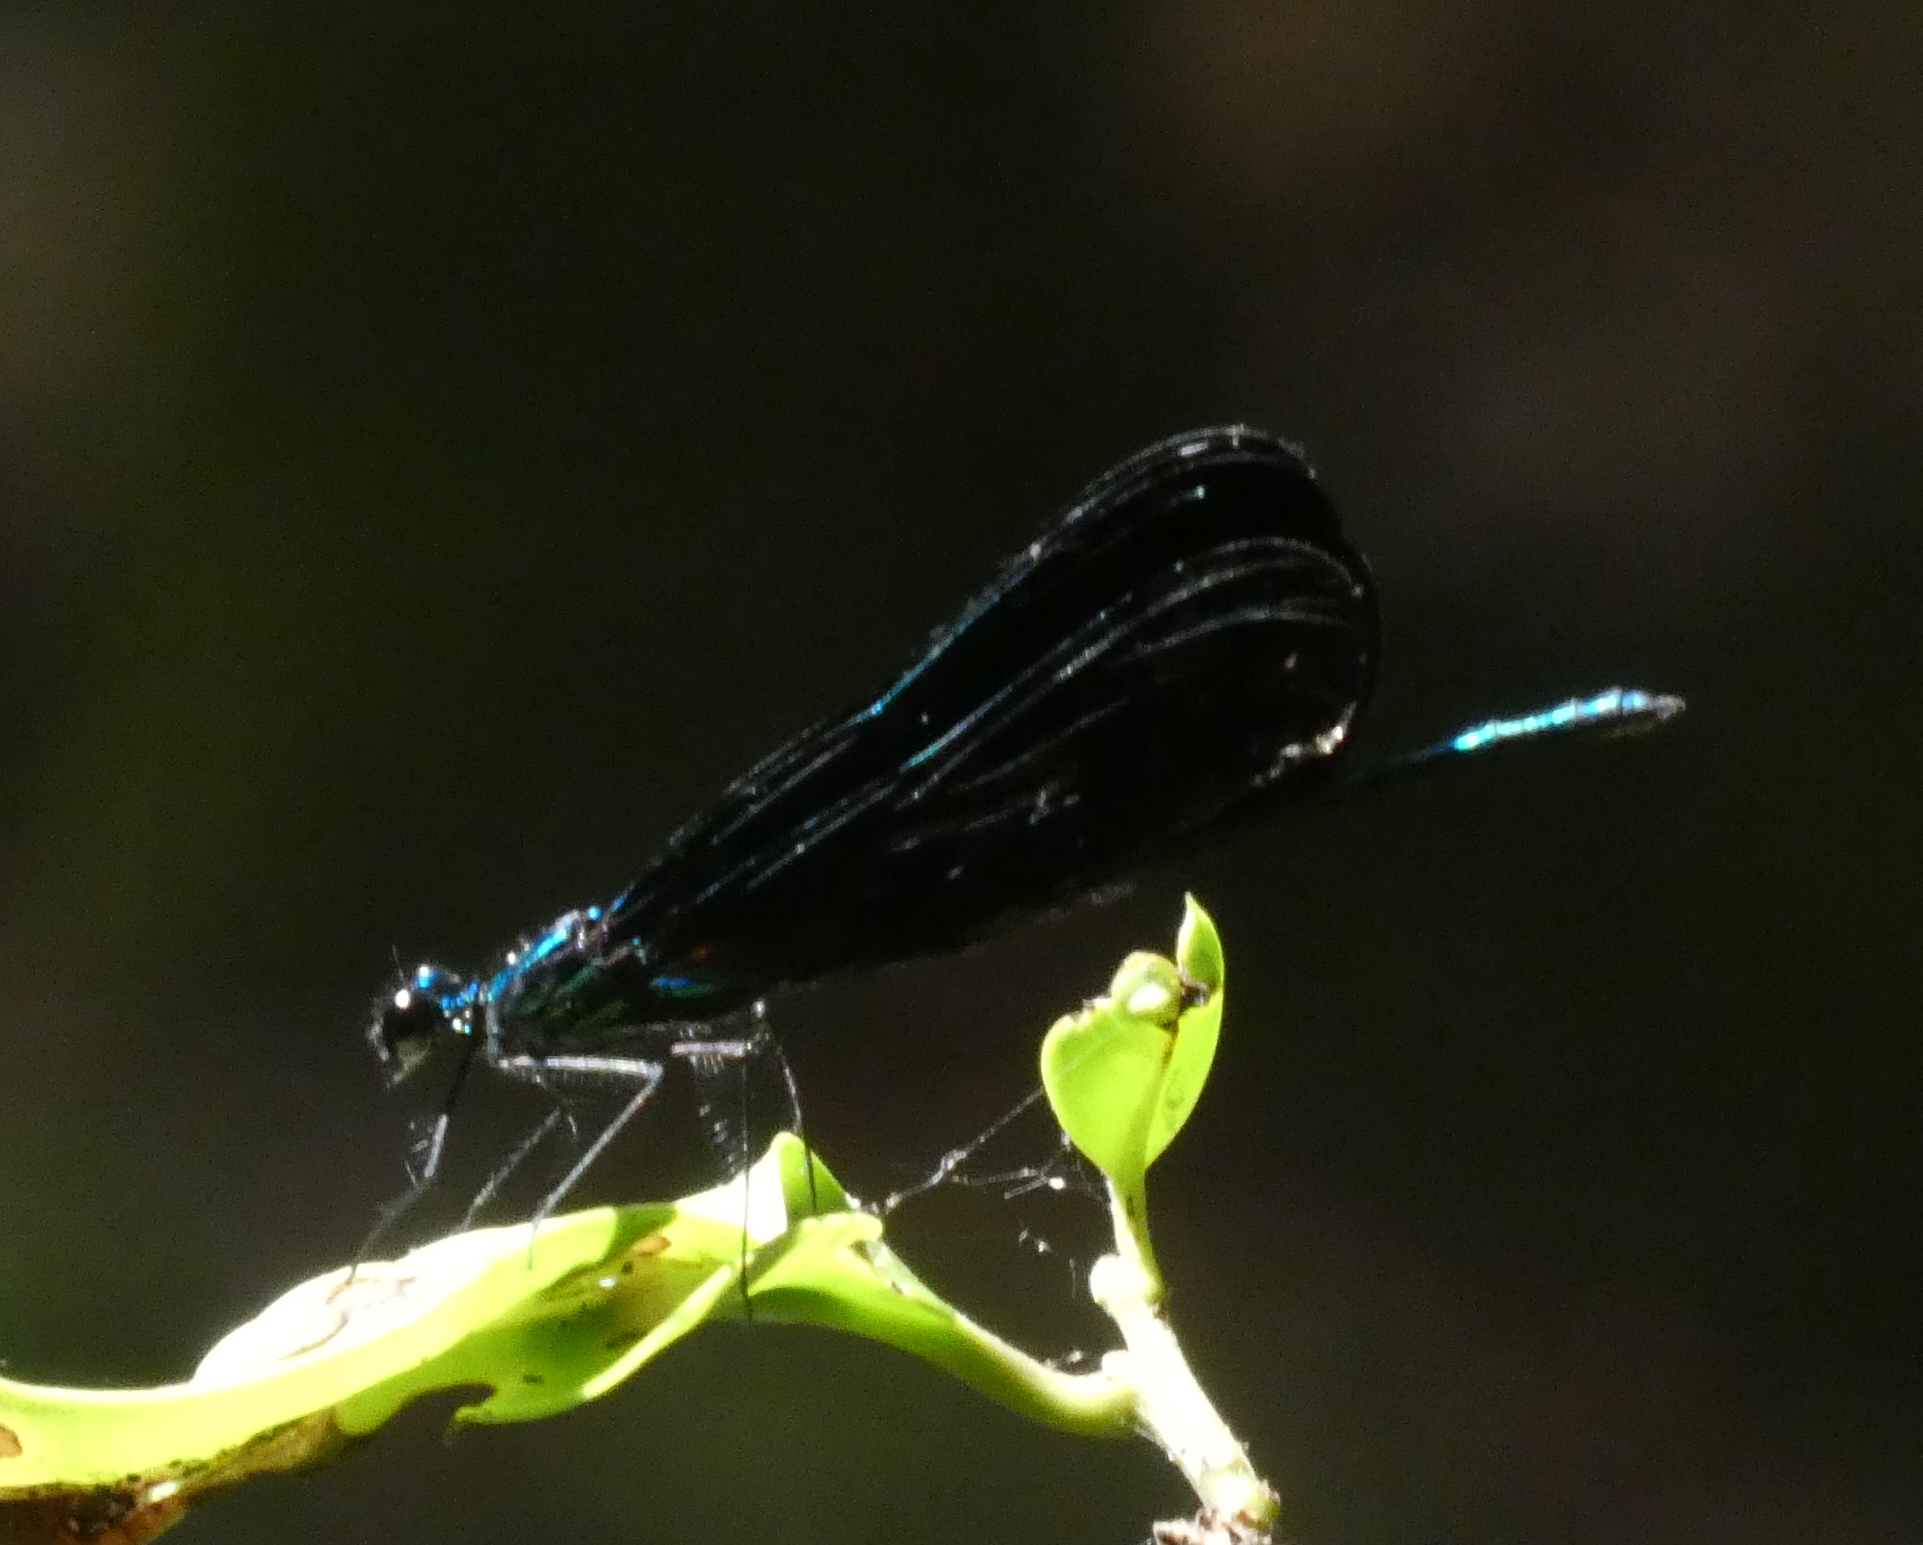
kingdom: Animalia
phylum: Arthropoda
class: Insecta
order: Odonata
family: Calopterygidae
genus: Calopteryx
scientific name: Calopteryx maculata
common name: Ebony jewelwing
